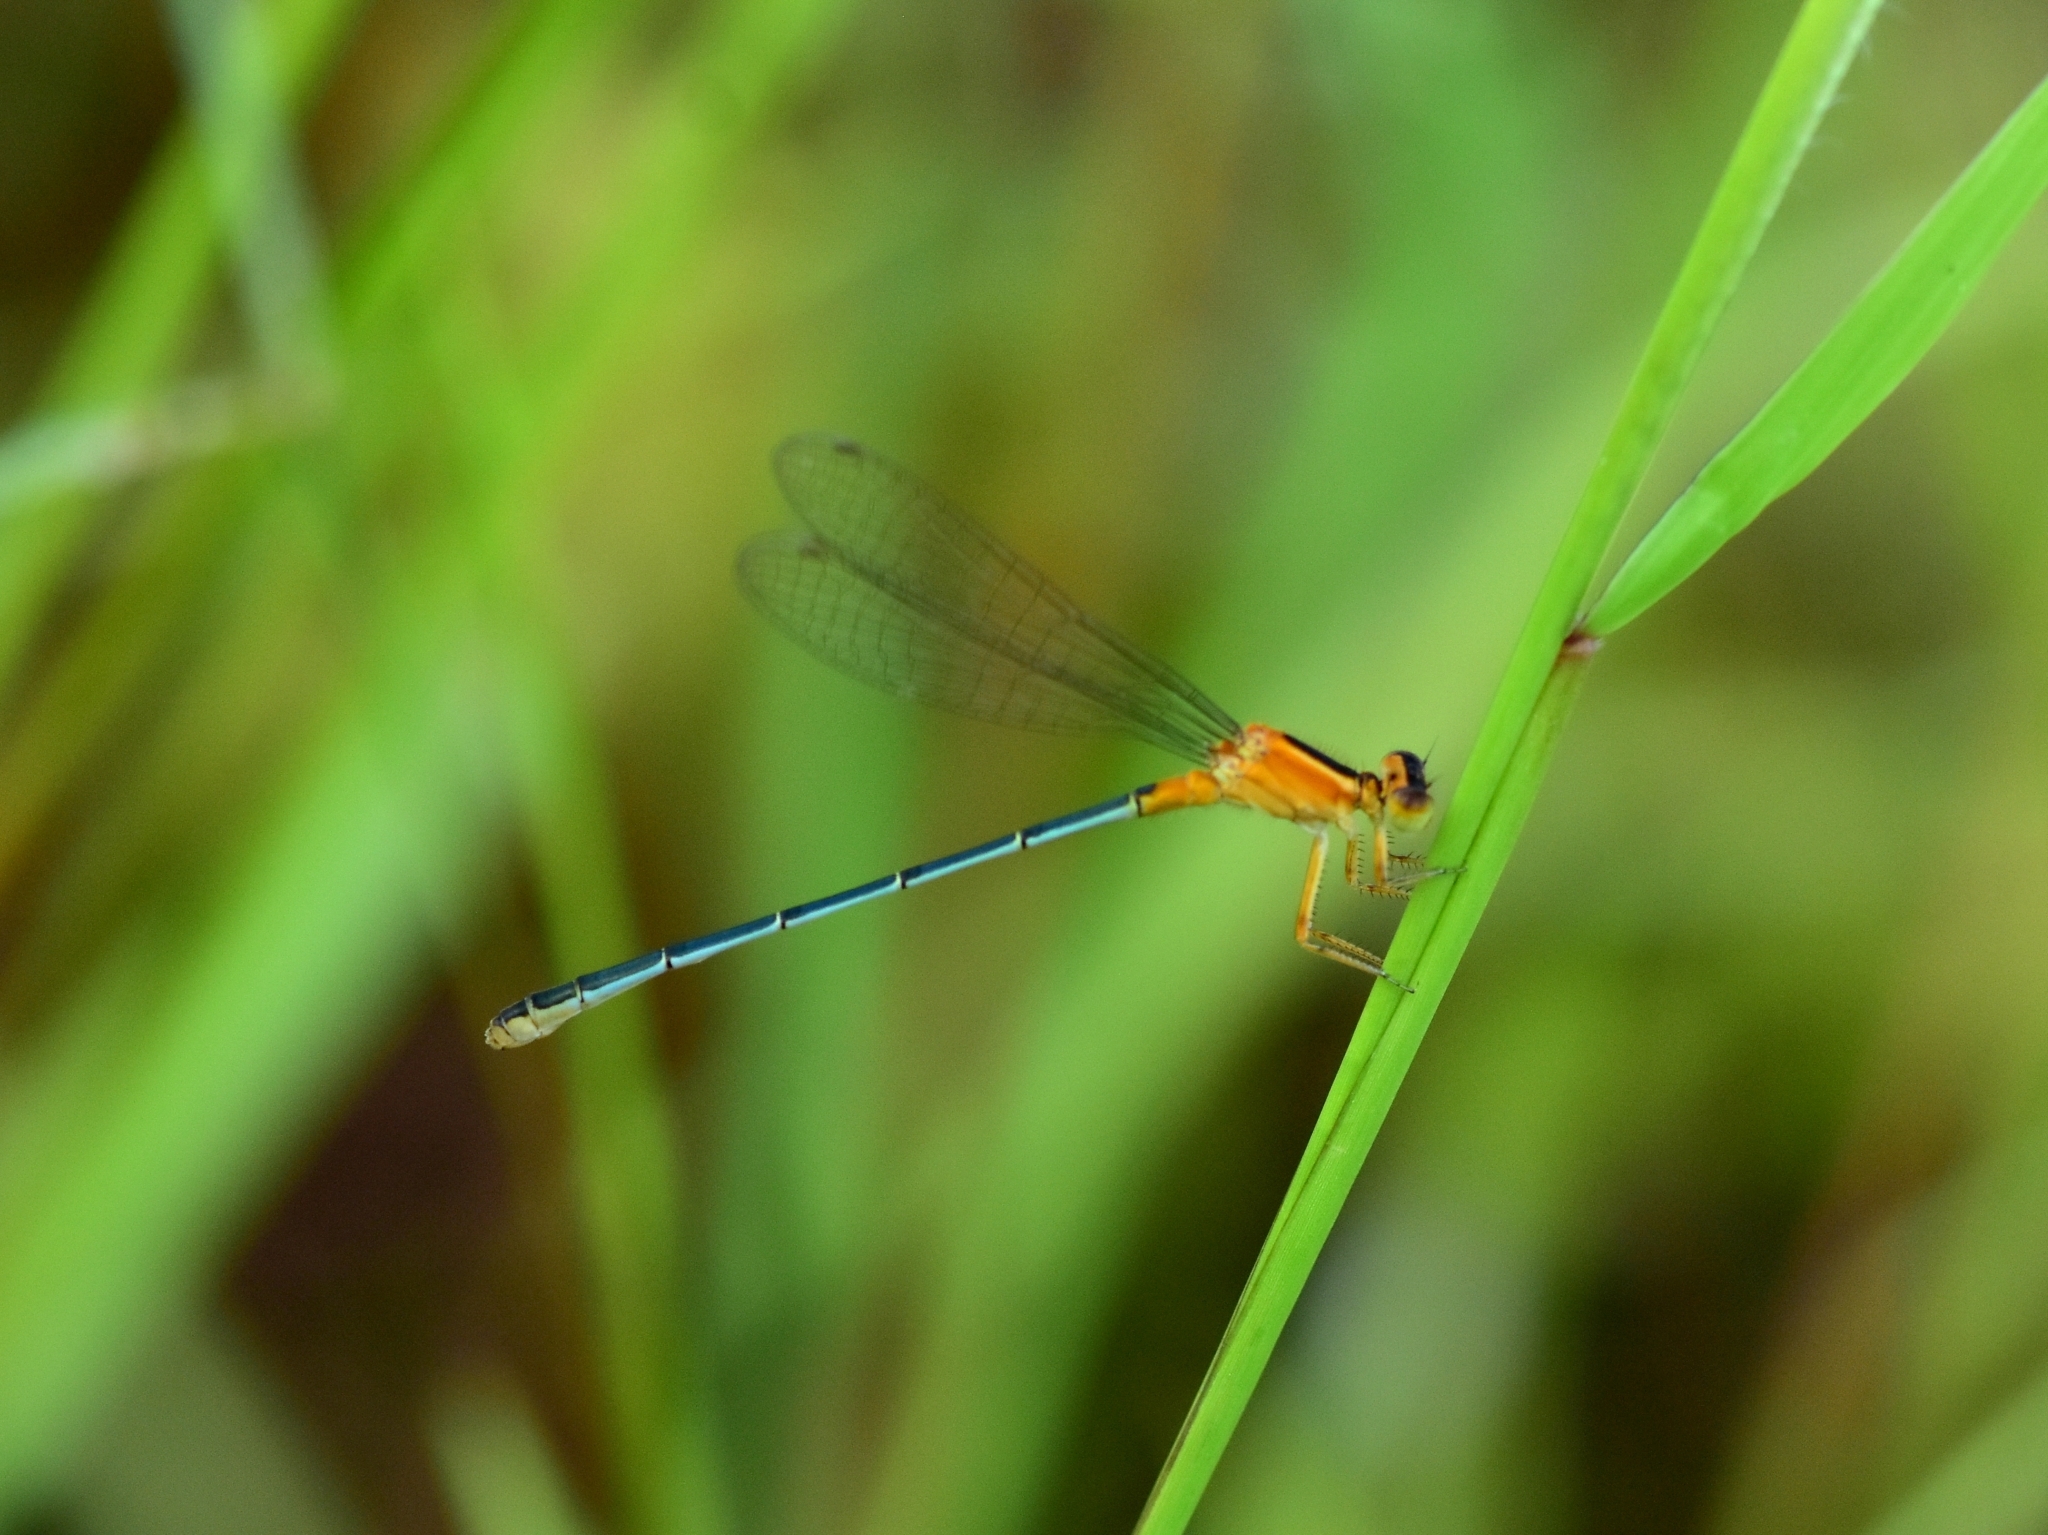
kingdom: Animalia
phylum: Arthropoda
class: Insecta
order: Odonata
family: Coenagrionidae
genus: Ischnura
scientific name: Ischnura senegalensis
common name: Tropical bluetail
